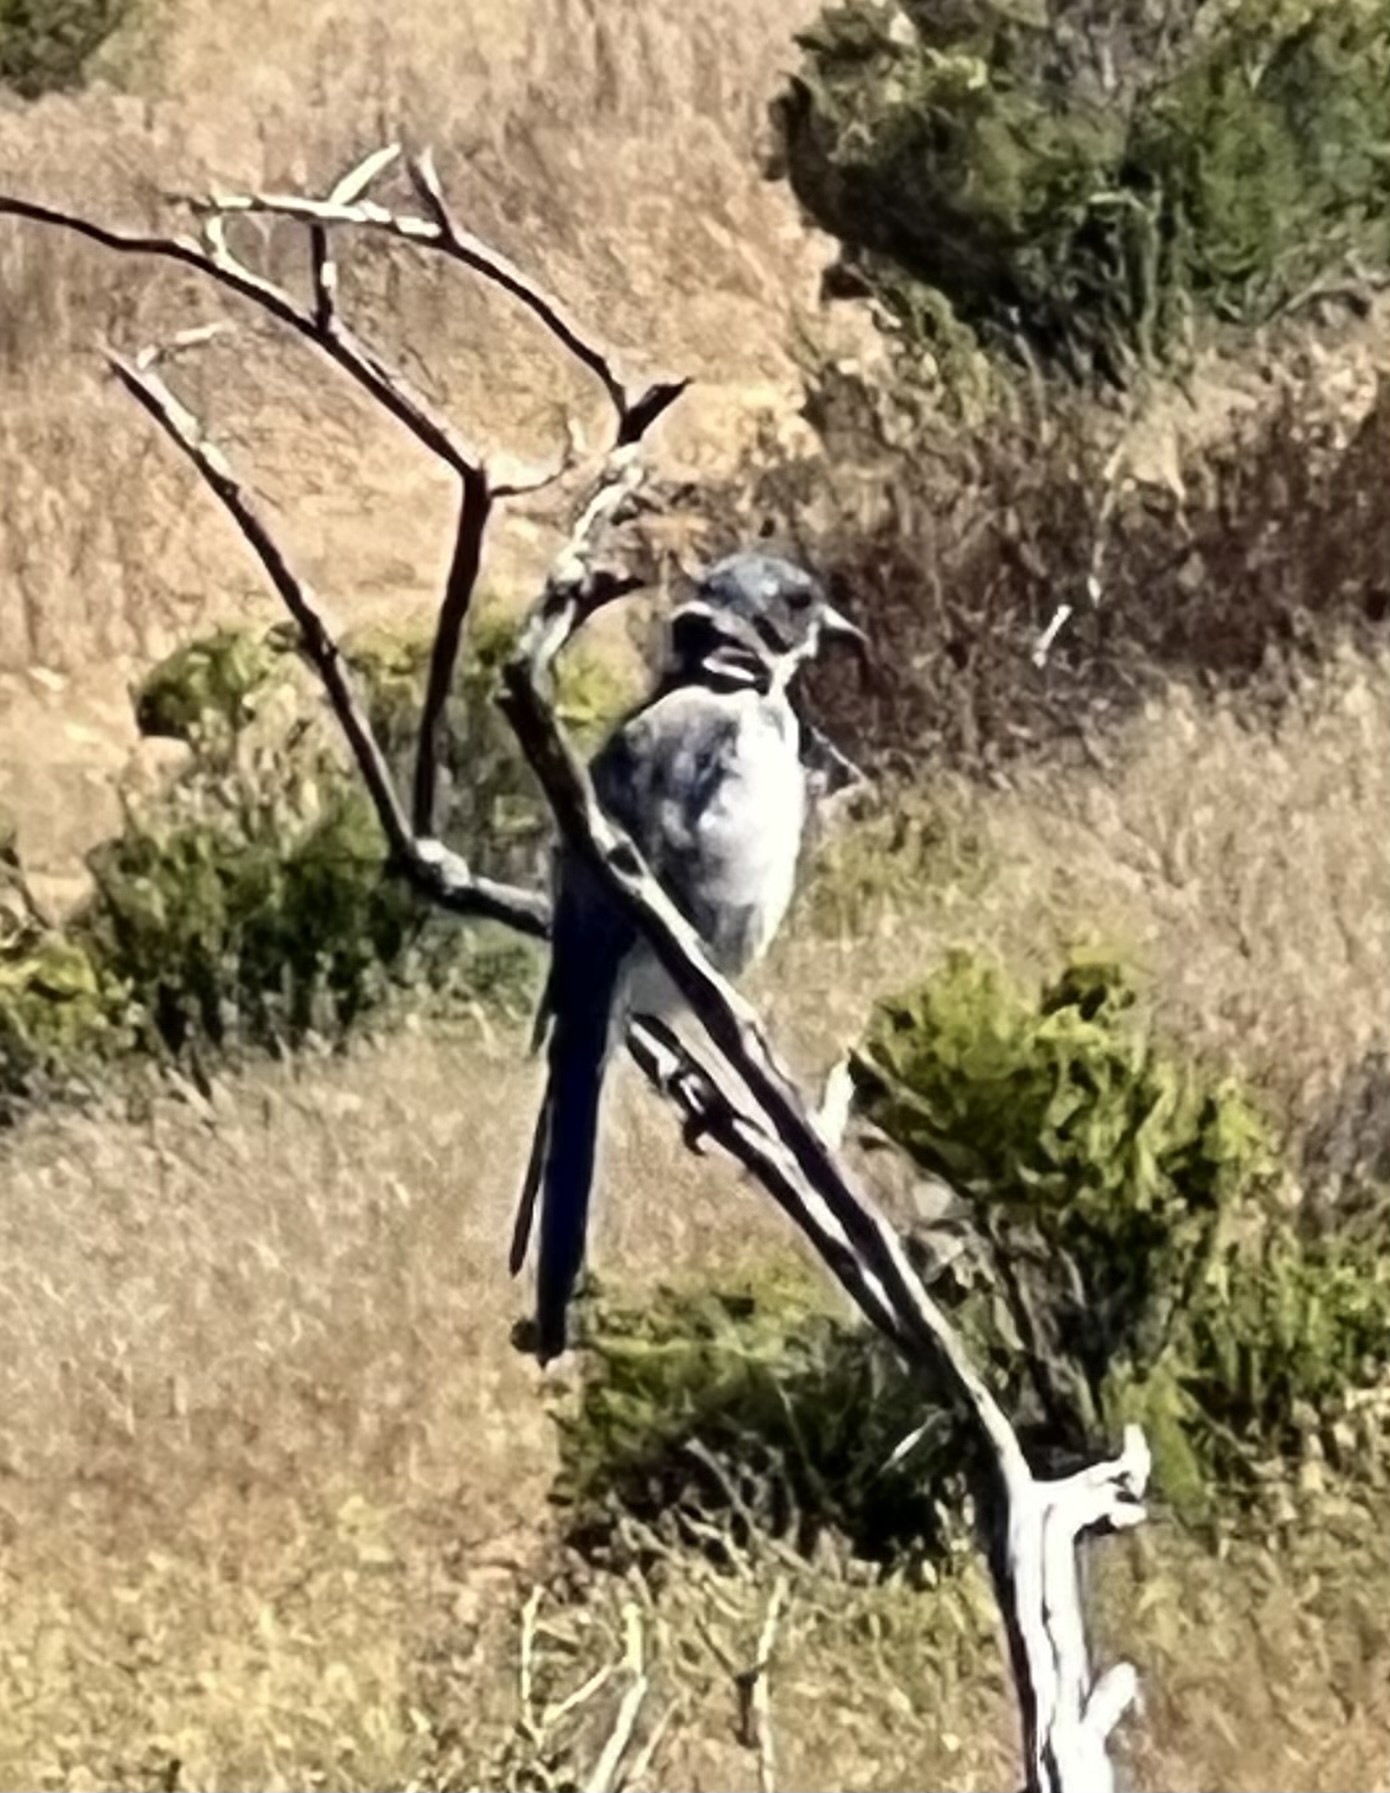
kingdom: Animalia
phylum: Chordata
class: Aves
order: Passeriformes
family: Corvidae
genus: Aphelocoma
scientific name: Aphelocoma californica
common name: California scrub-jay
